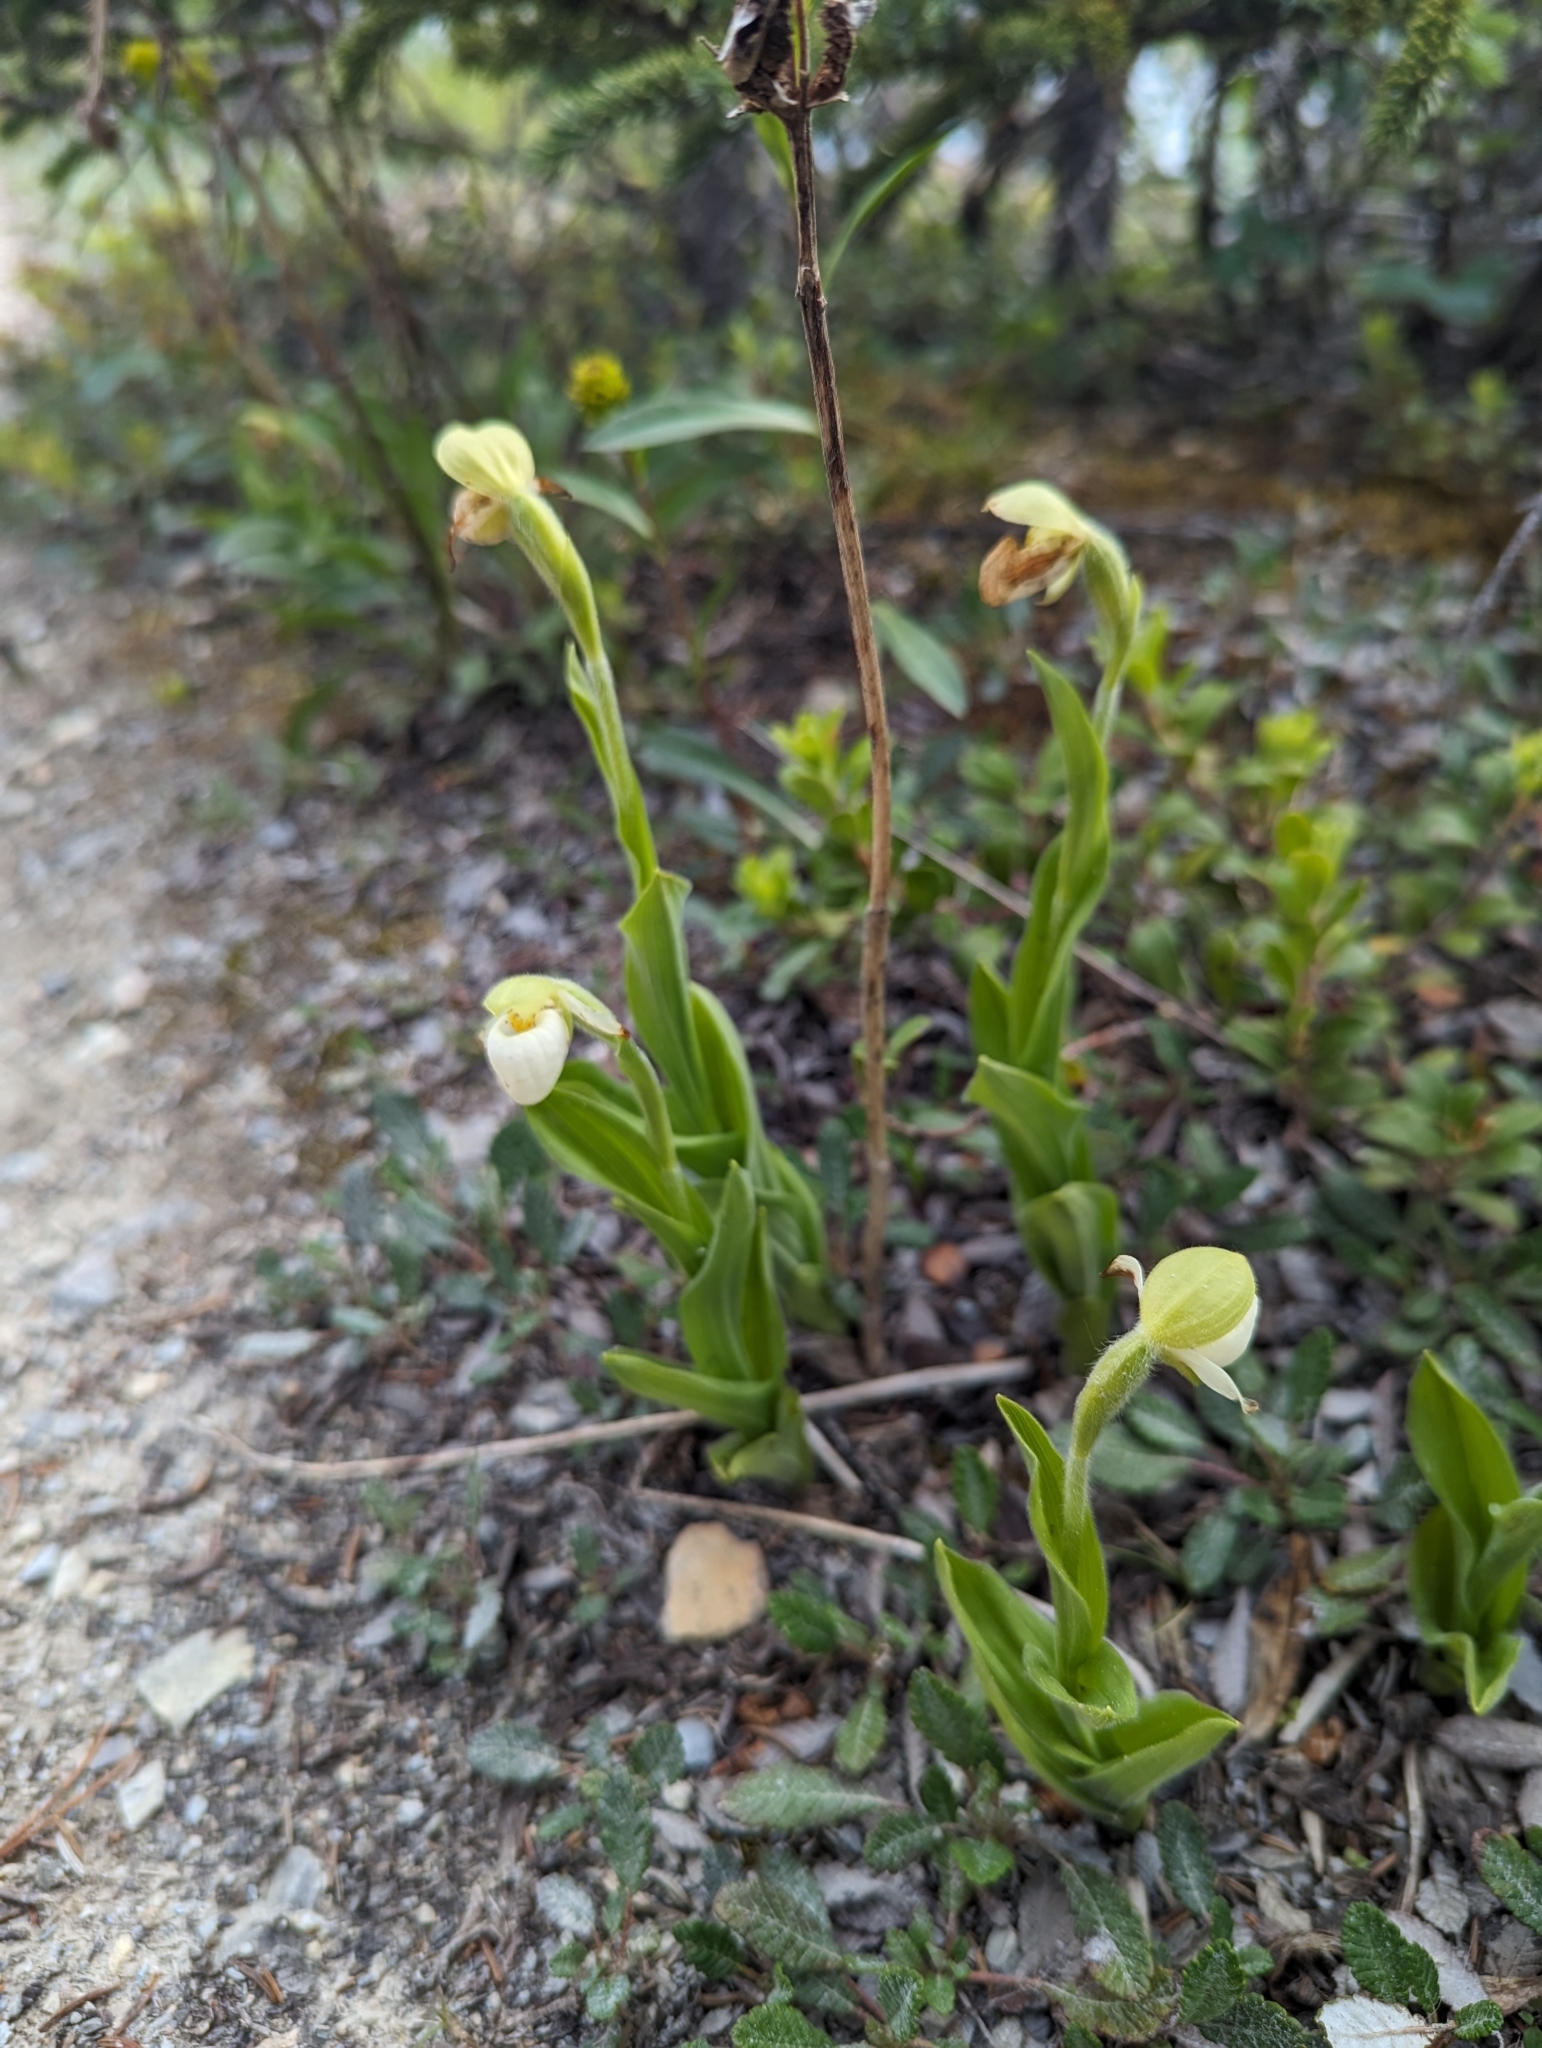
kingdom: Plantae
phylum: Tracheophyta
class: Liliopsida
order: Asparagales
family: Orchidaceae
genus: Cypripedium
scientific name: Cypripedium passerinum
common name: Sparrow's-egg lady's-slipper
